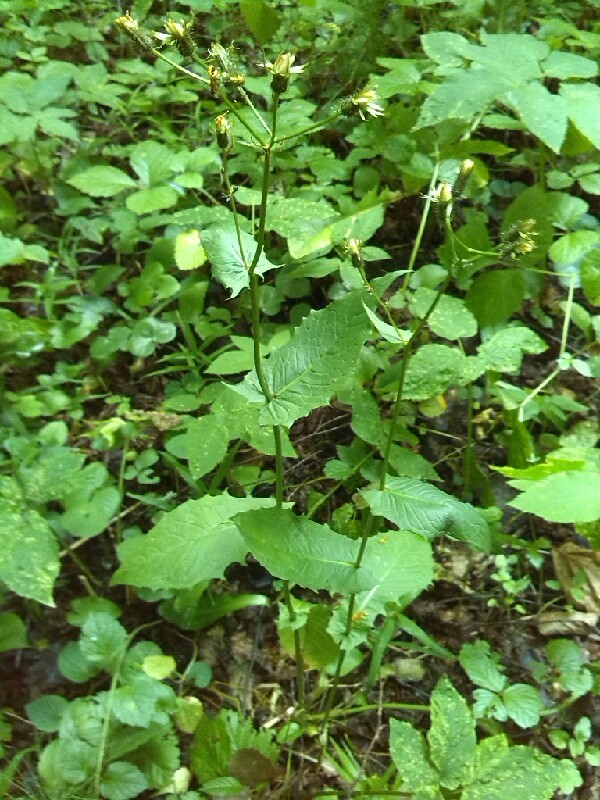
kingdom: Plantae
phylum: Tracheophyta
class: Magnoliopsida
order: Asterales
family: Asteraceae
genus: Crepis
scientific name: Crepis paludosa
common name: Marsh hawk's-beard
